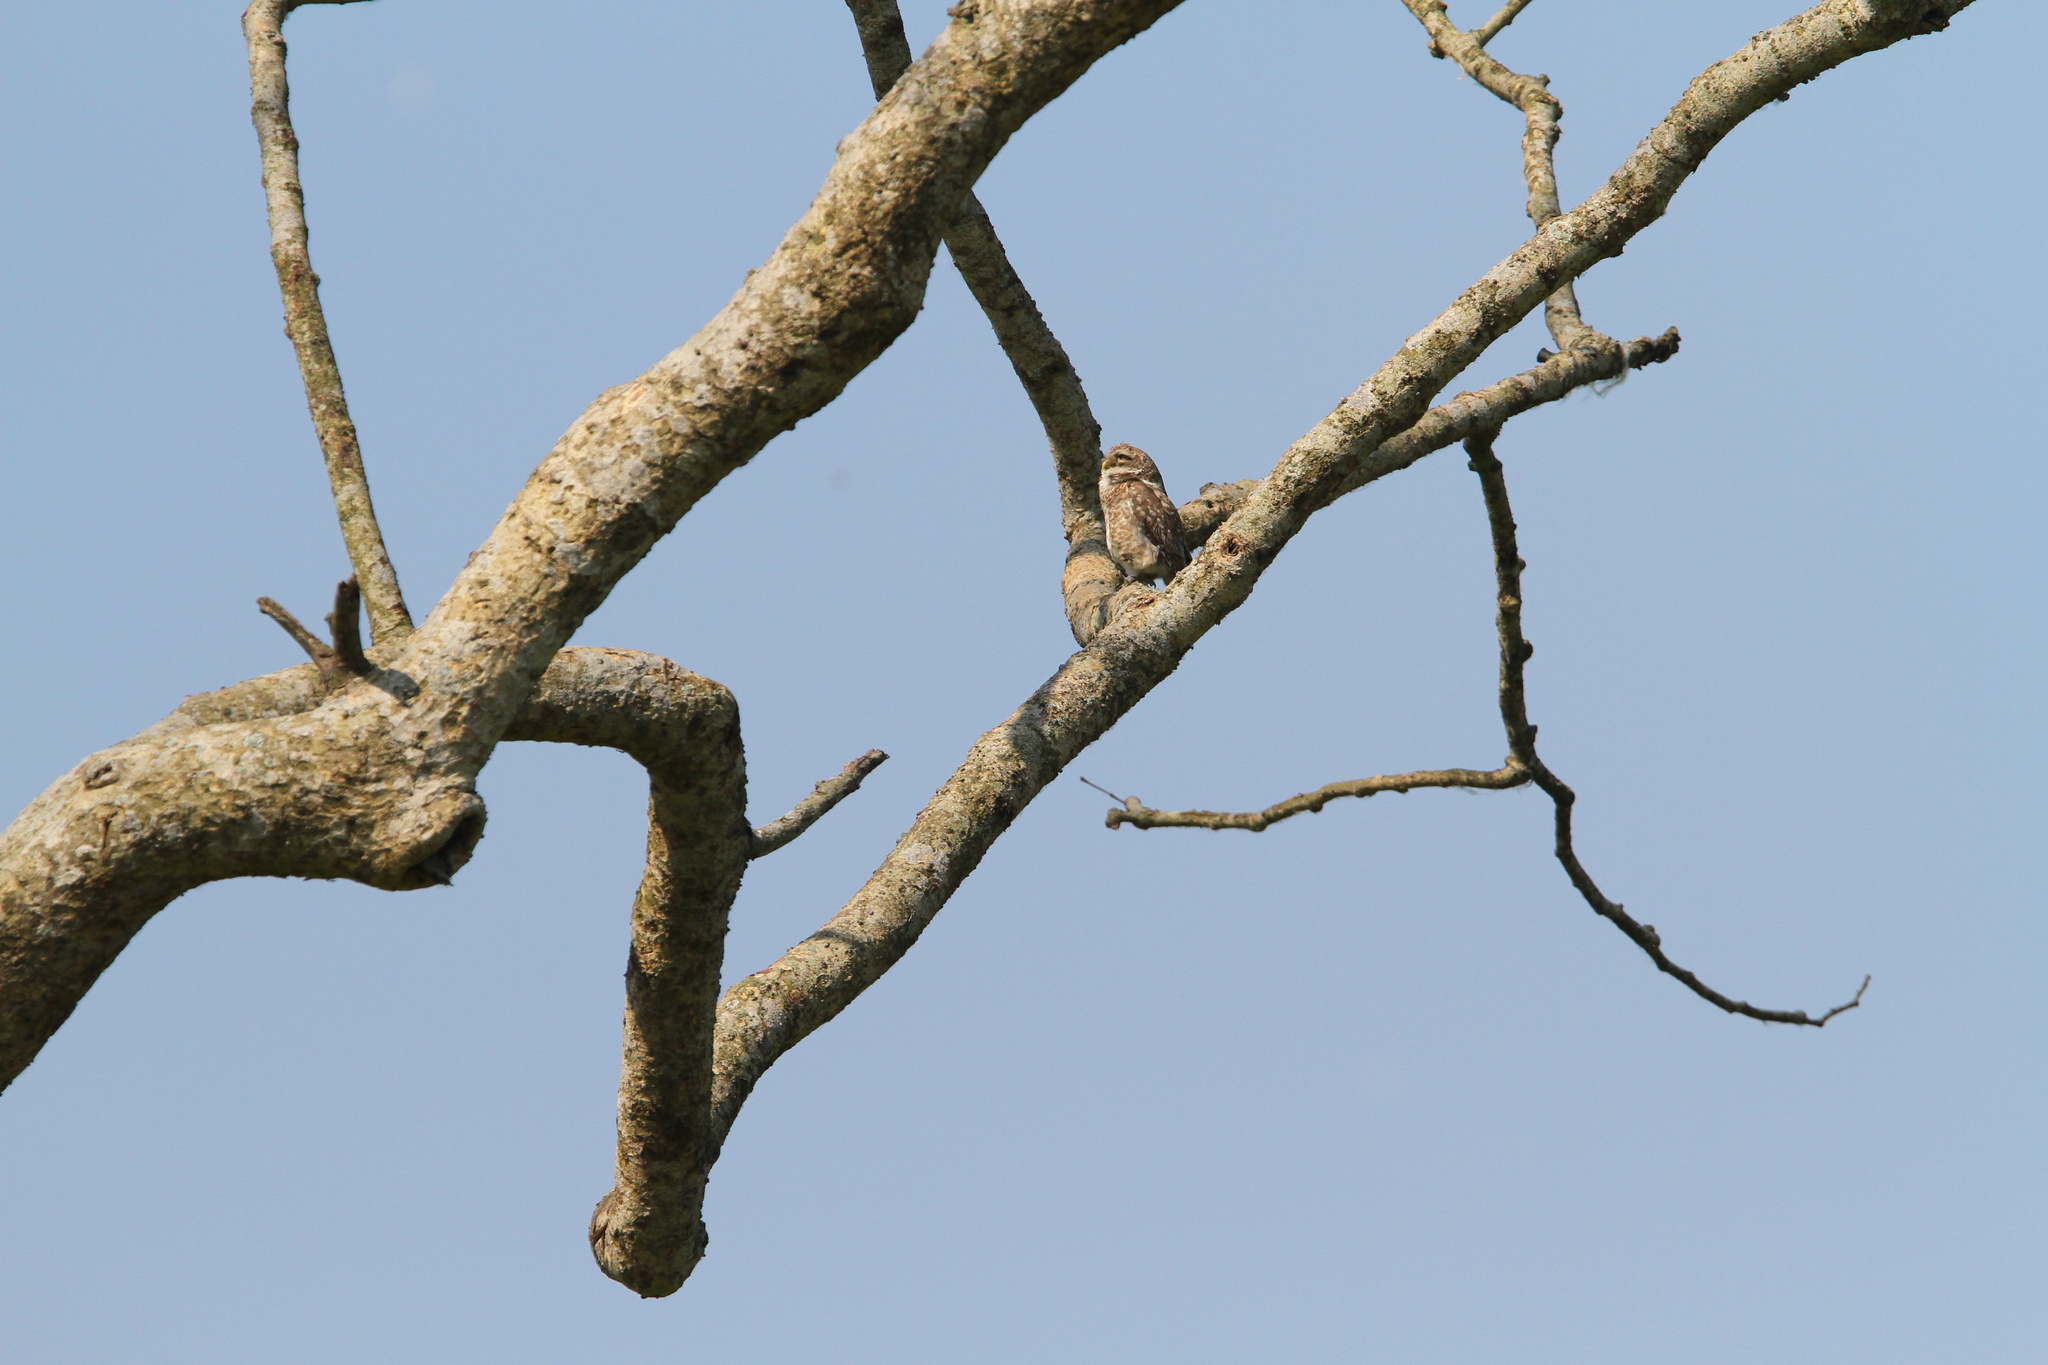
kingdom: Animalia
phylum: Chordata
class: Aves
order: Strigiformes
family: Strigidae
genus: Athene
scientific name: Athene brama
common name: Spotted owlet
